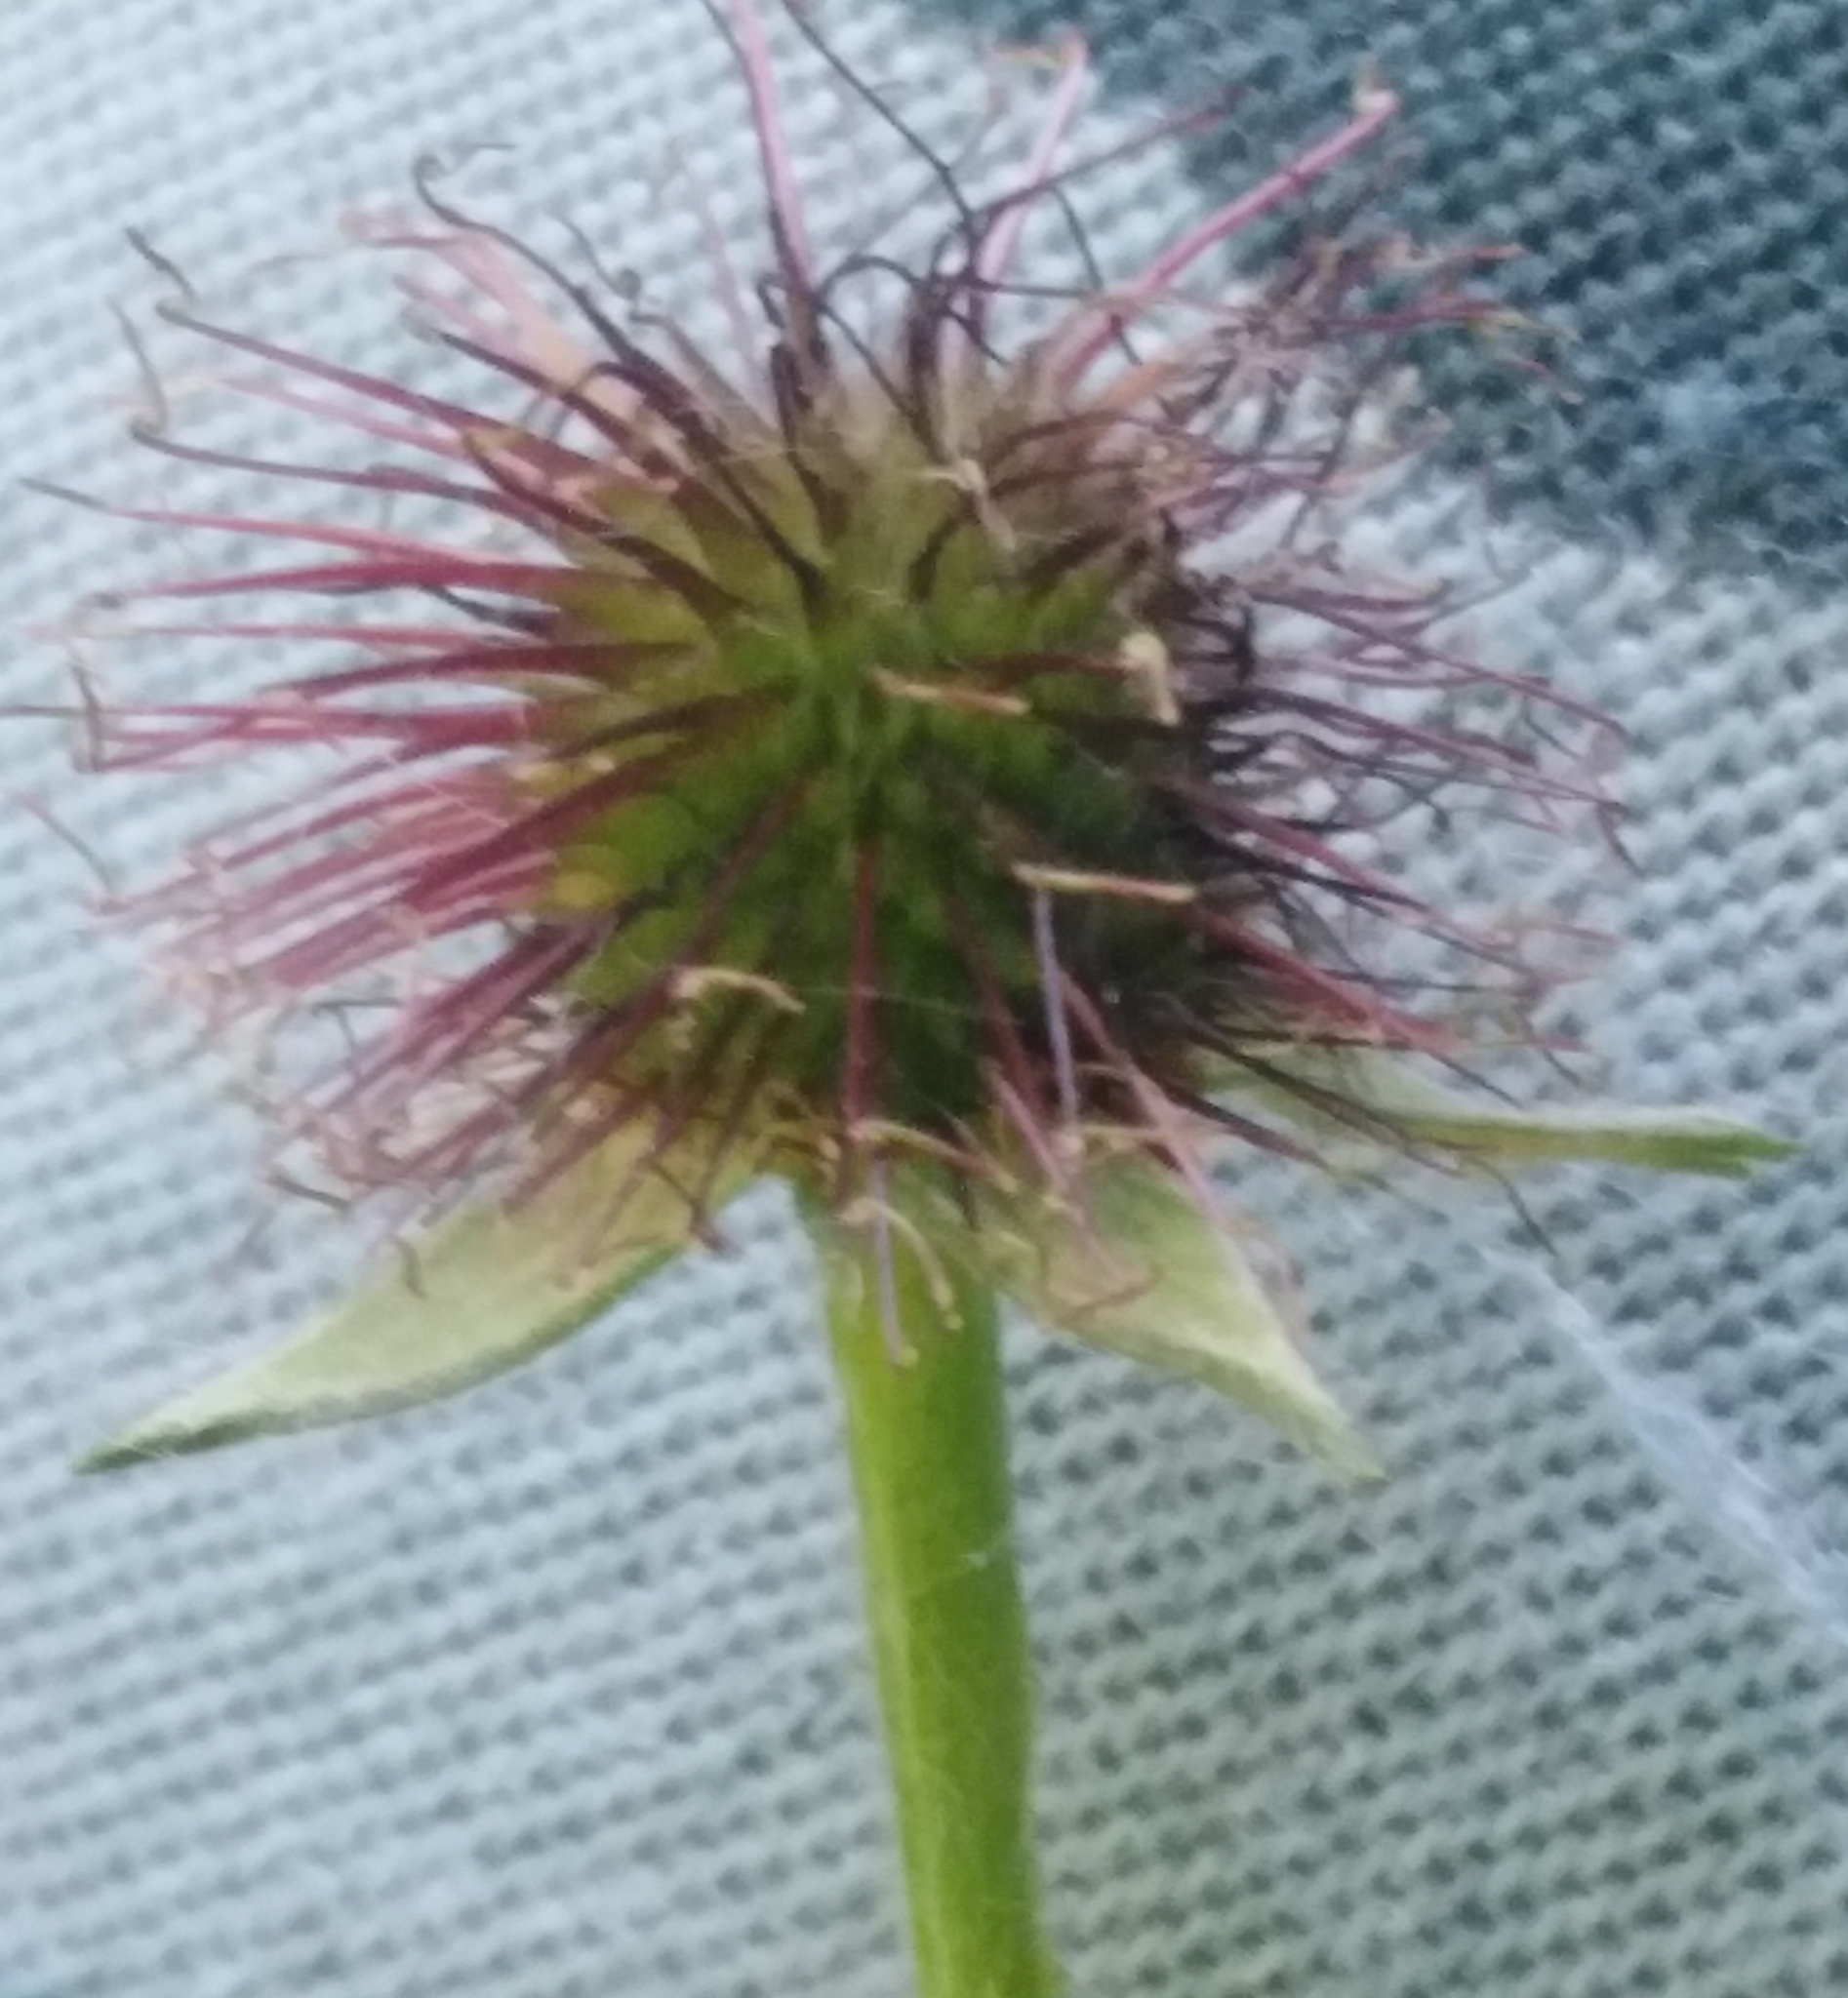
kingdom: Plantae
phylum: Tracheophyta
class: Magnoliopsida
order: Rosales
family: Rosaceae
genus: Geum
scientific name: Geum urbanum
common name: Wood avens
